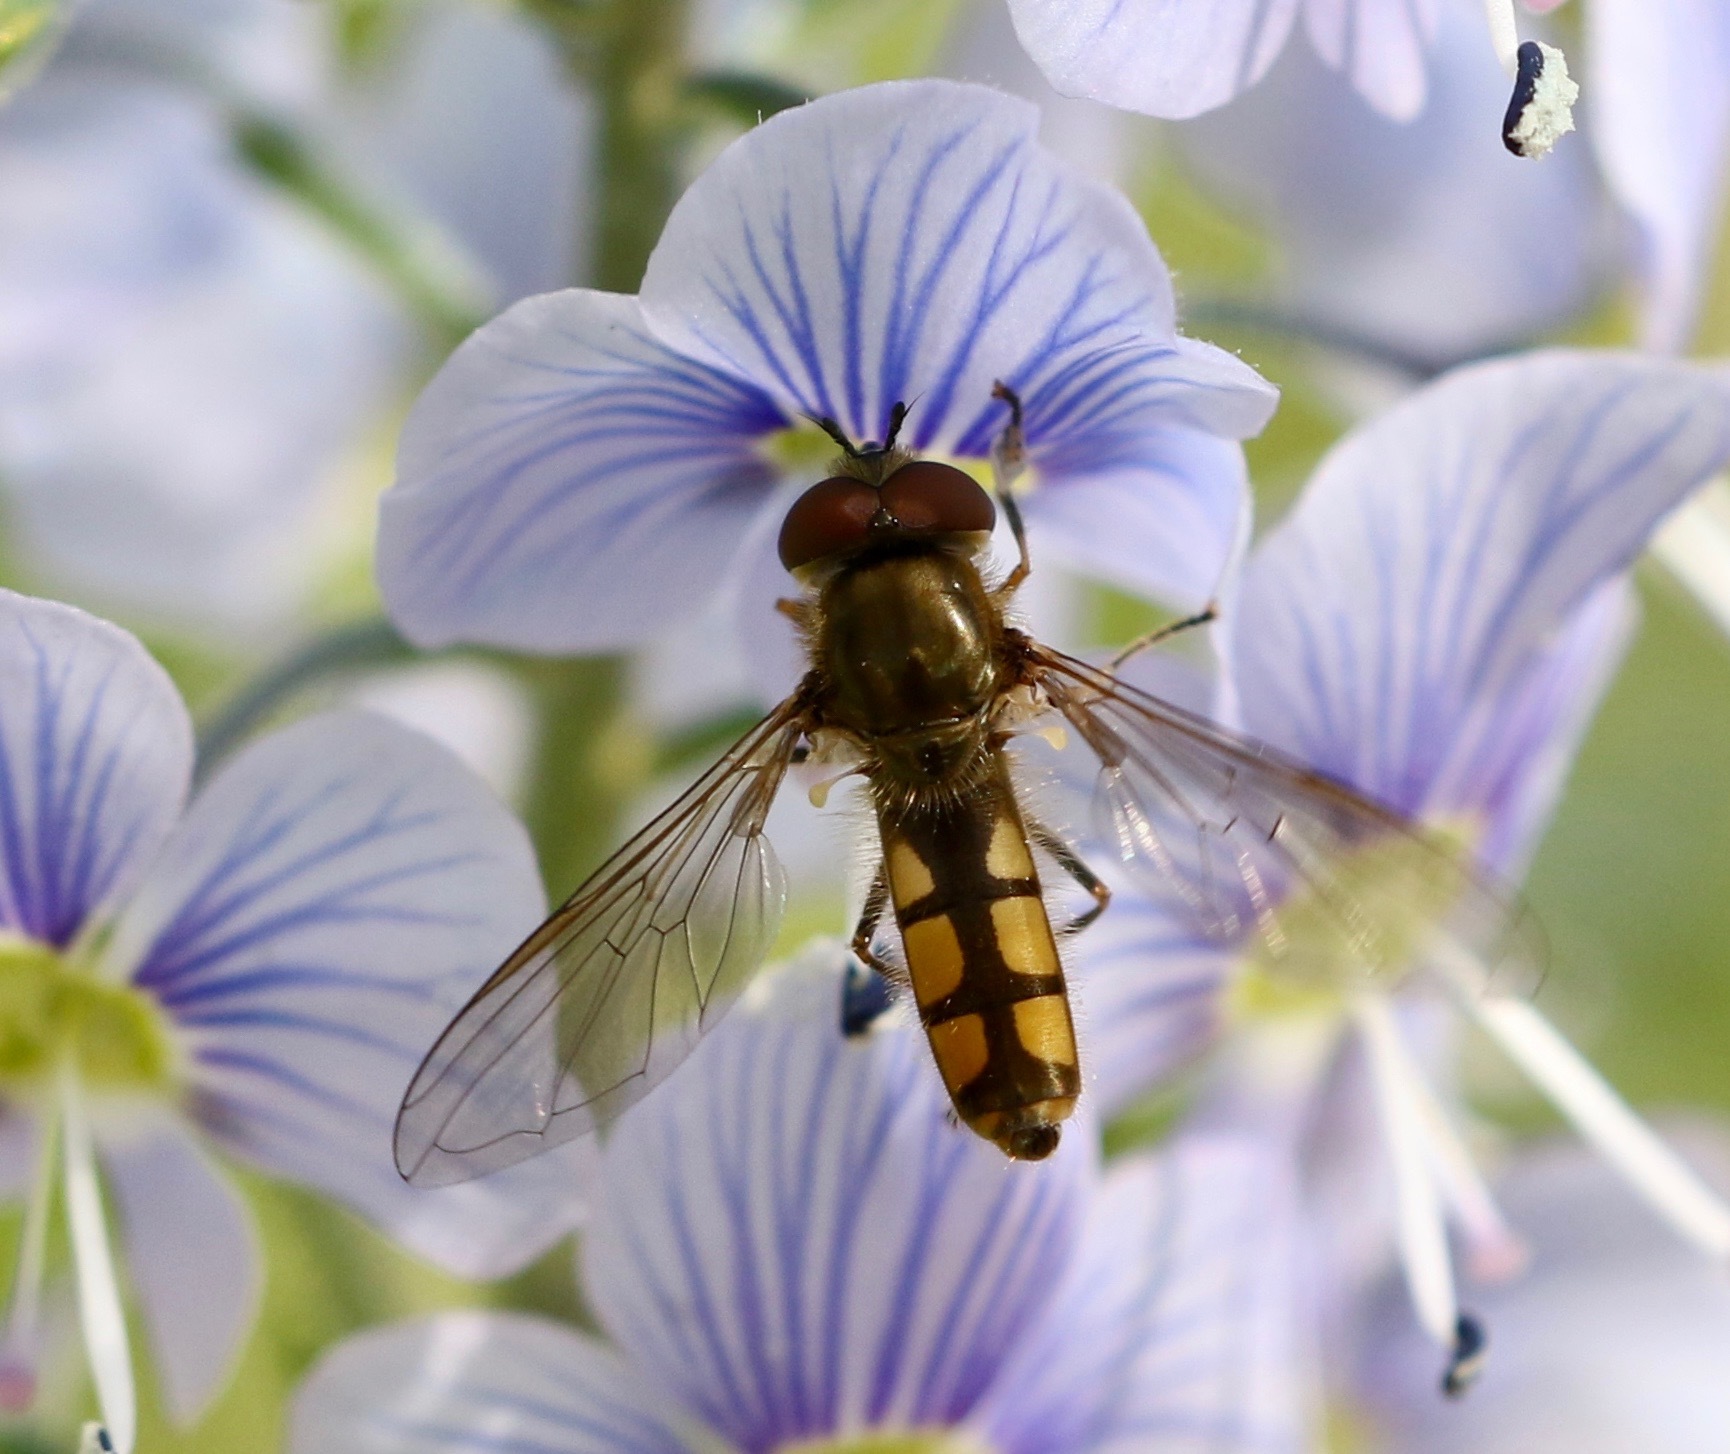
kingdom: Animalia
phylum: Arthropoda
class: Insecta
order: Diptera
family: Syrphidae
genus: Platycheirus
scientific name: Platycheirus manicatus
